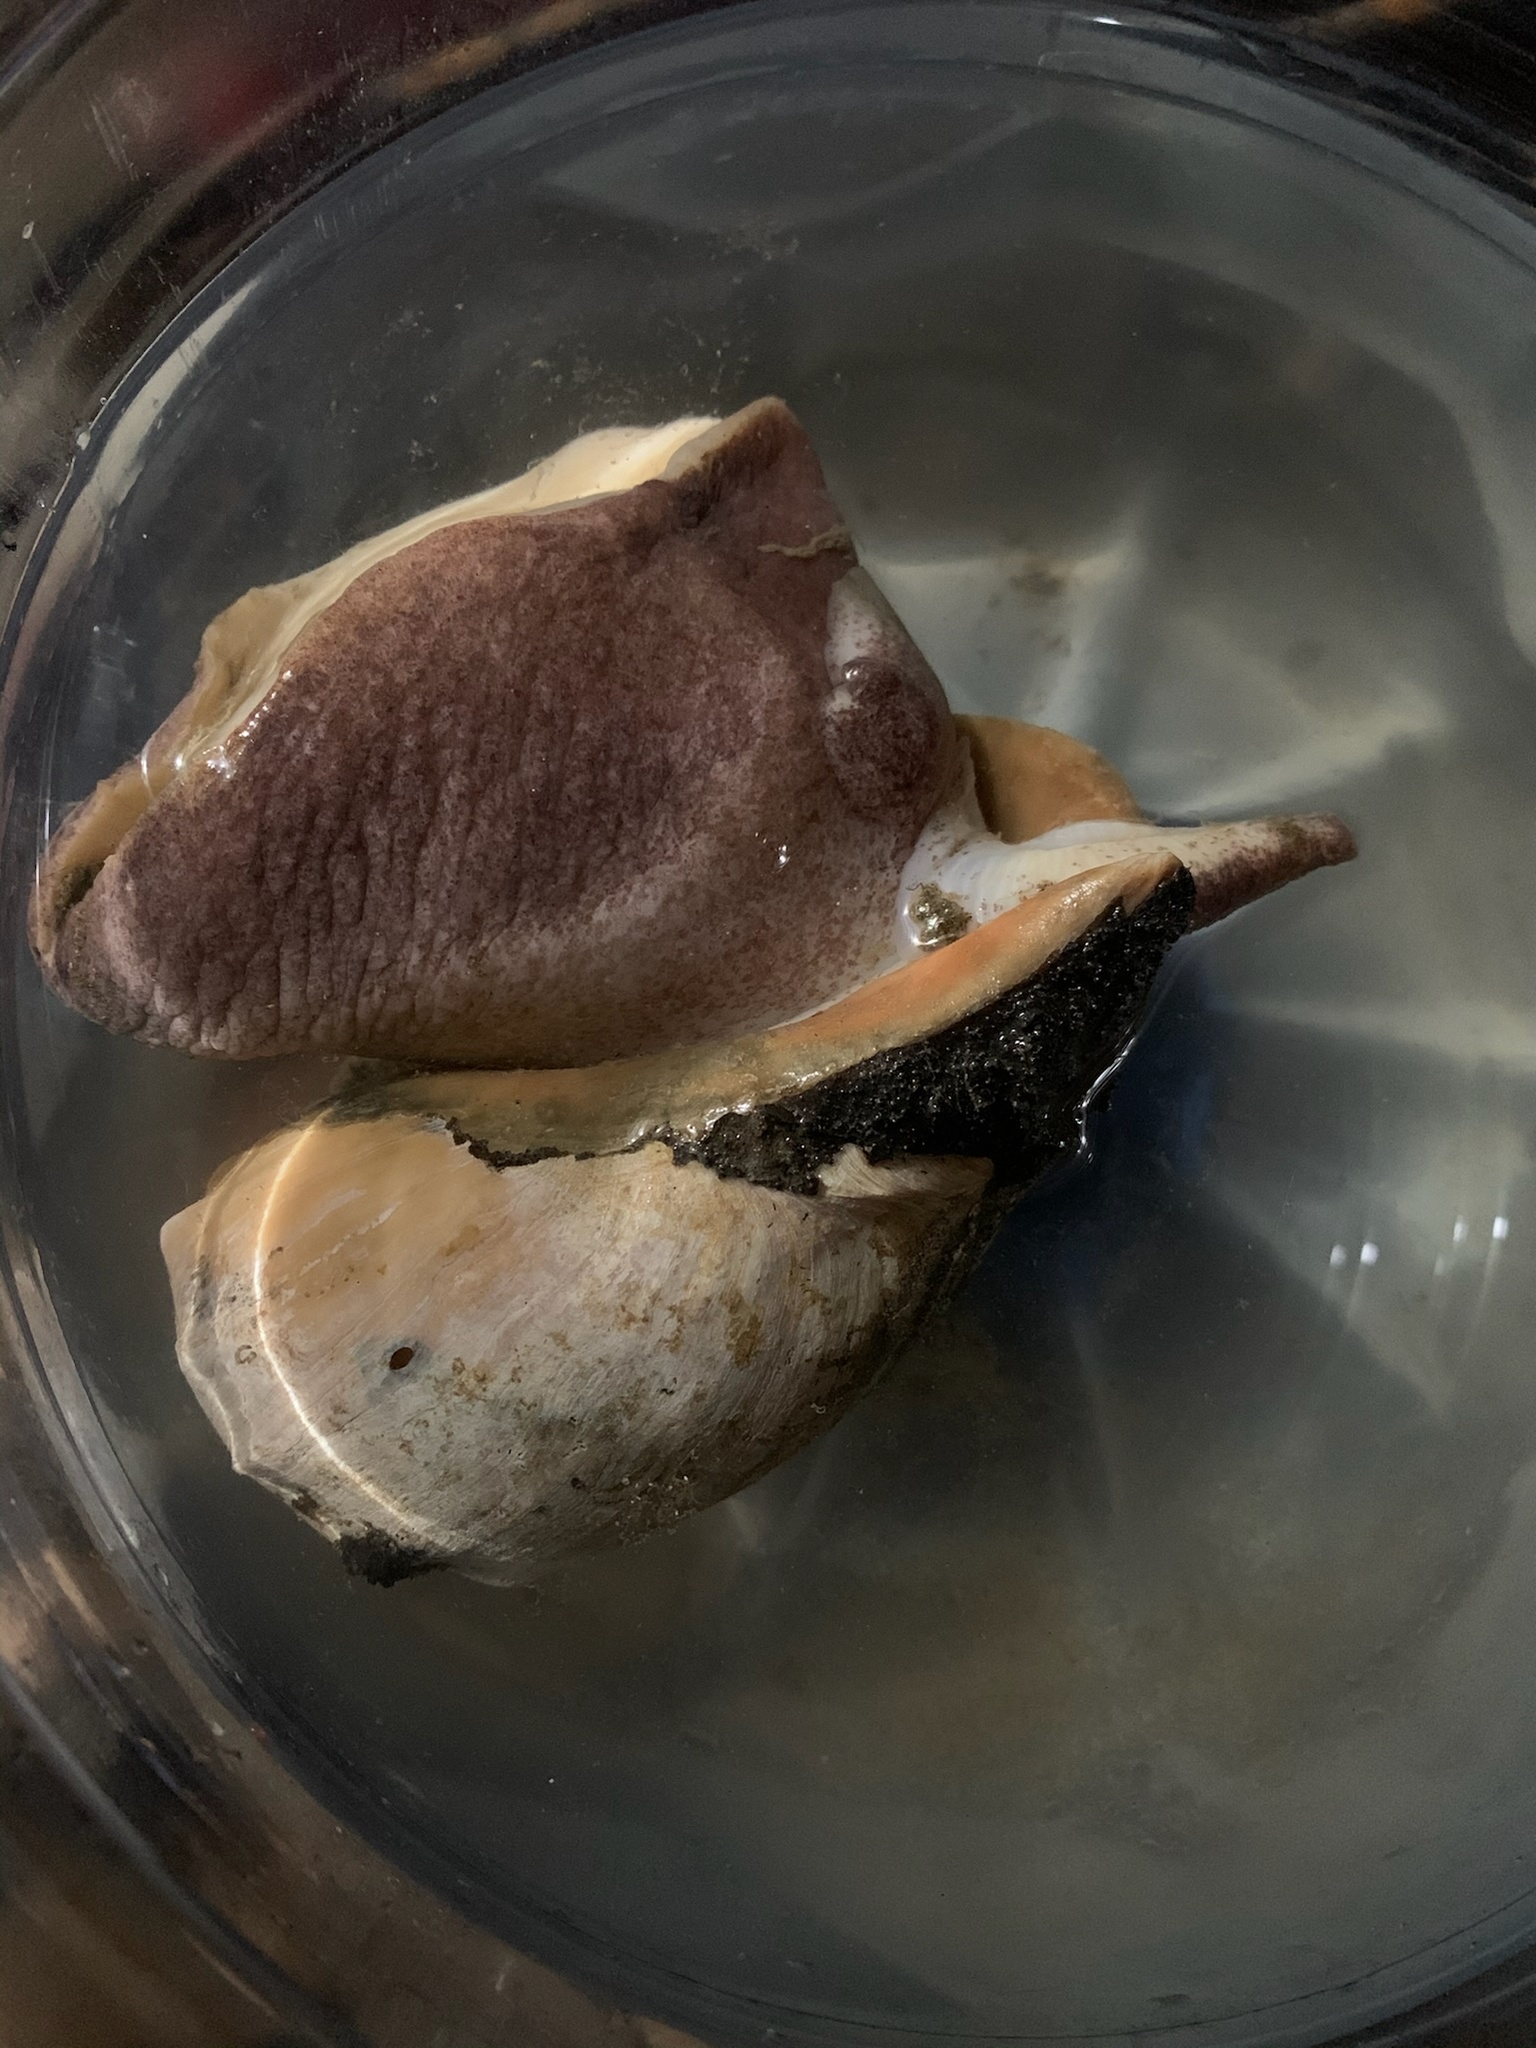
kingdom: Animalia
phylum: Mollusca
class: Gastropoda
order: Neogastropoda
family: Volutidae
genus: Pachycymbiola
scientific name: Pachycymbiola brasiliana
